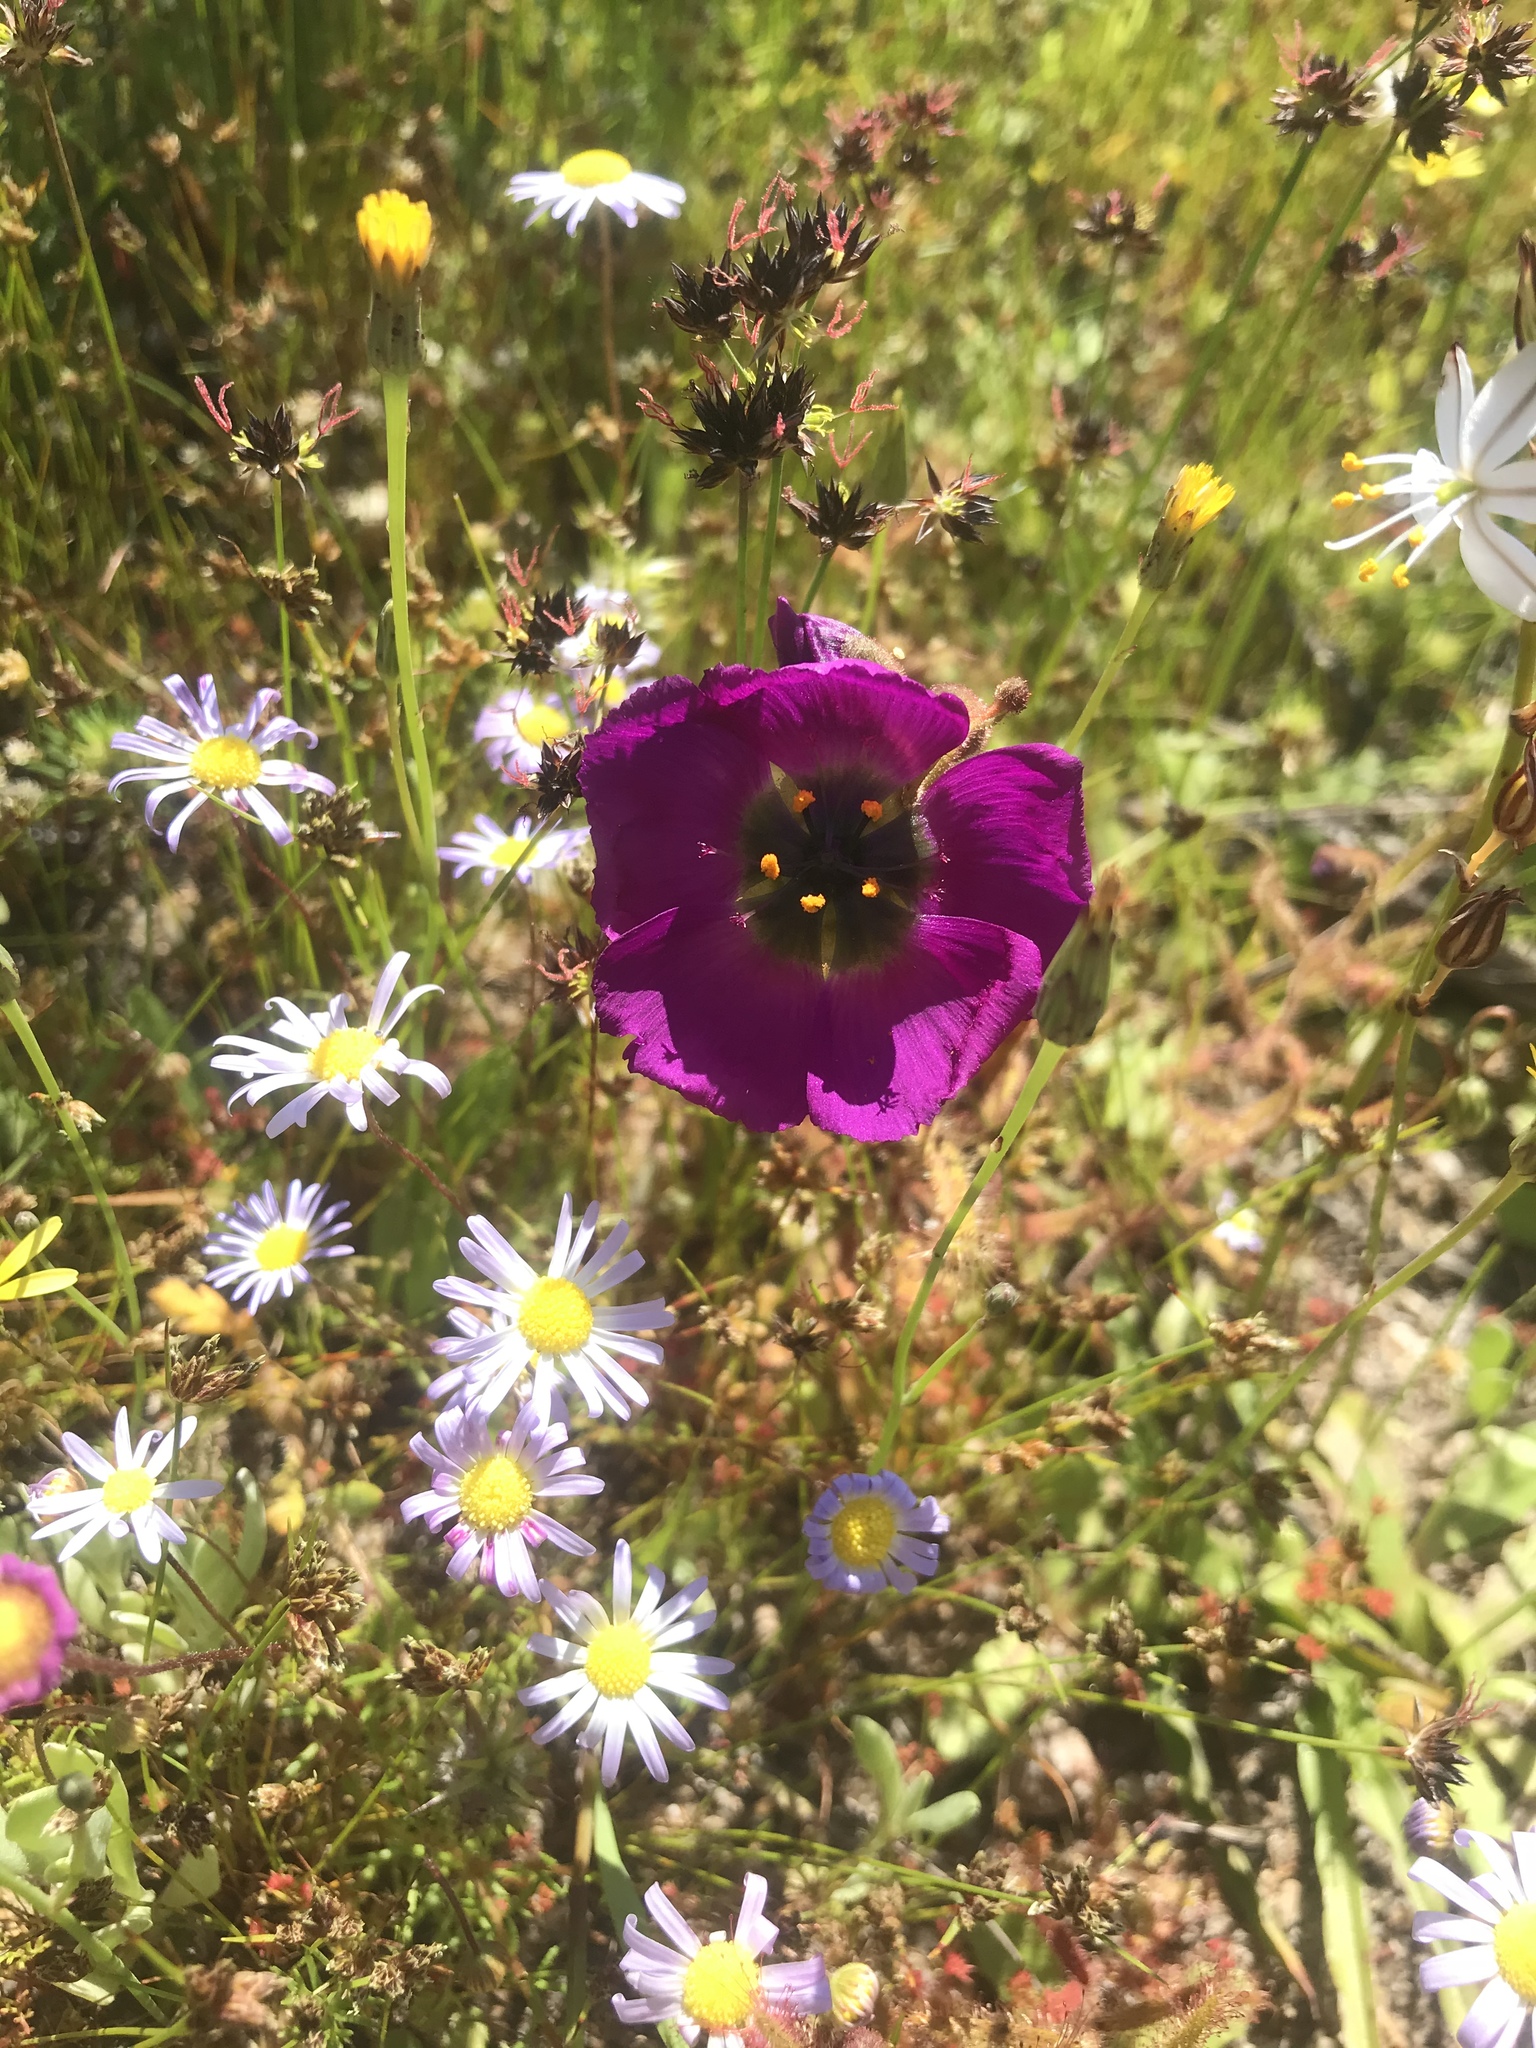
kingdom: Plantae
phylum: Tracheophyta
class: Magnoliopsida
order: Caryophyllales
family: Droseraceae
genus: Drosera
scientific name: Drosera cistiflora
